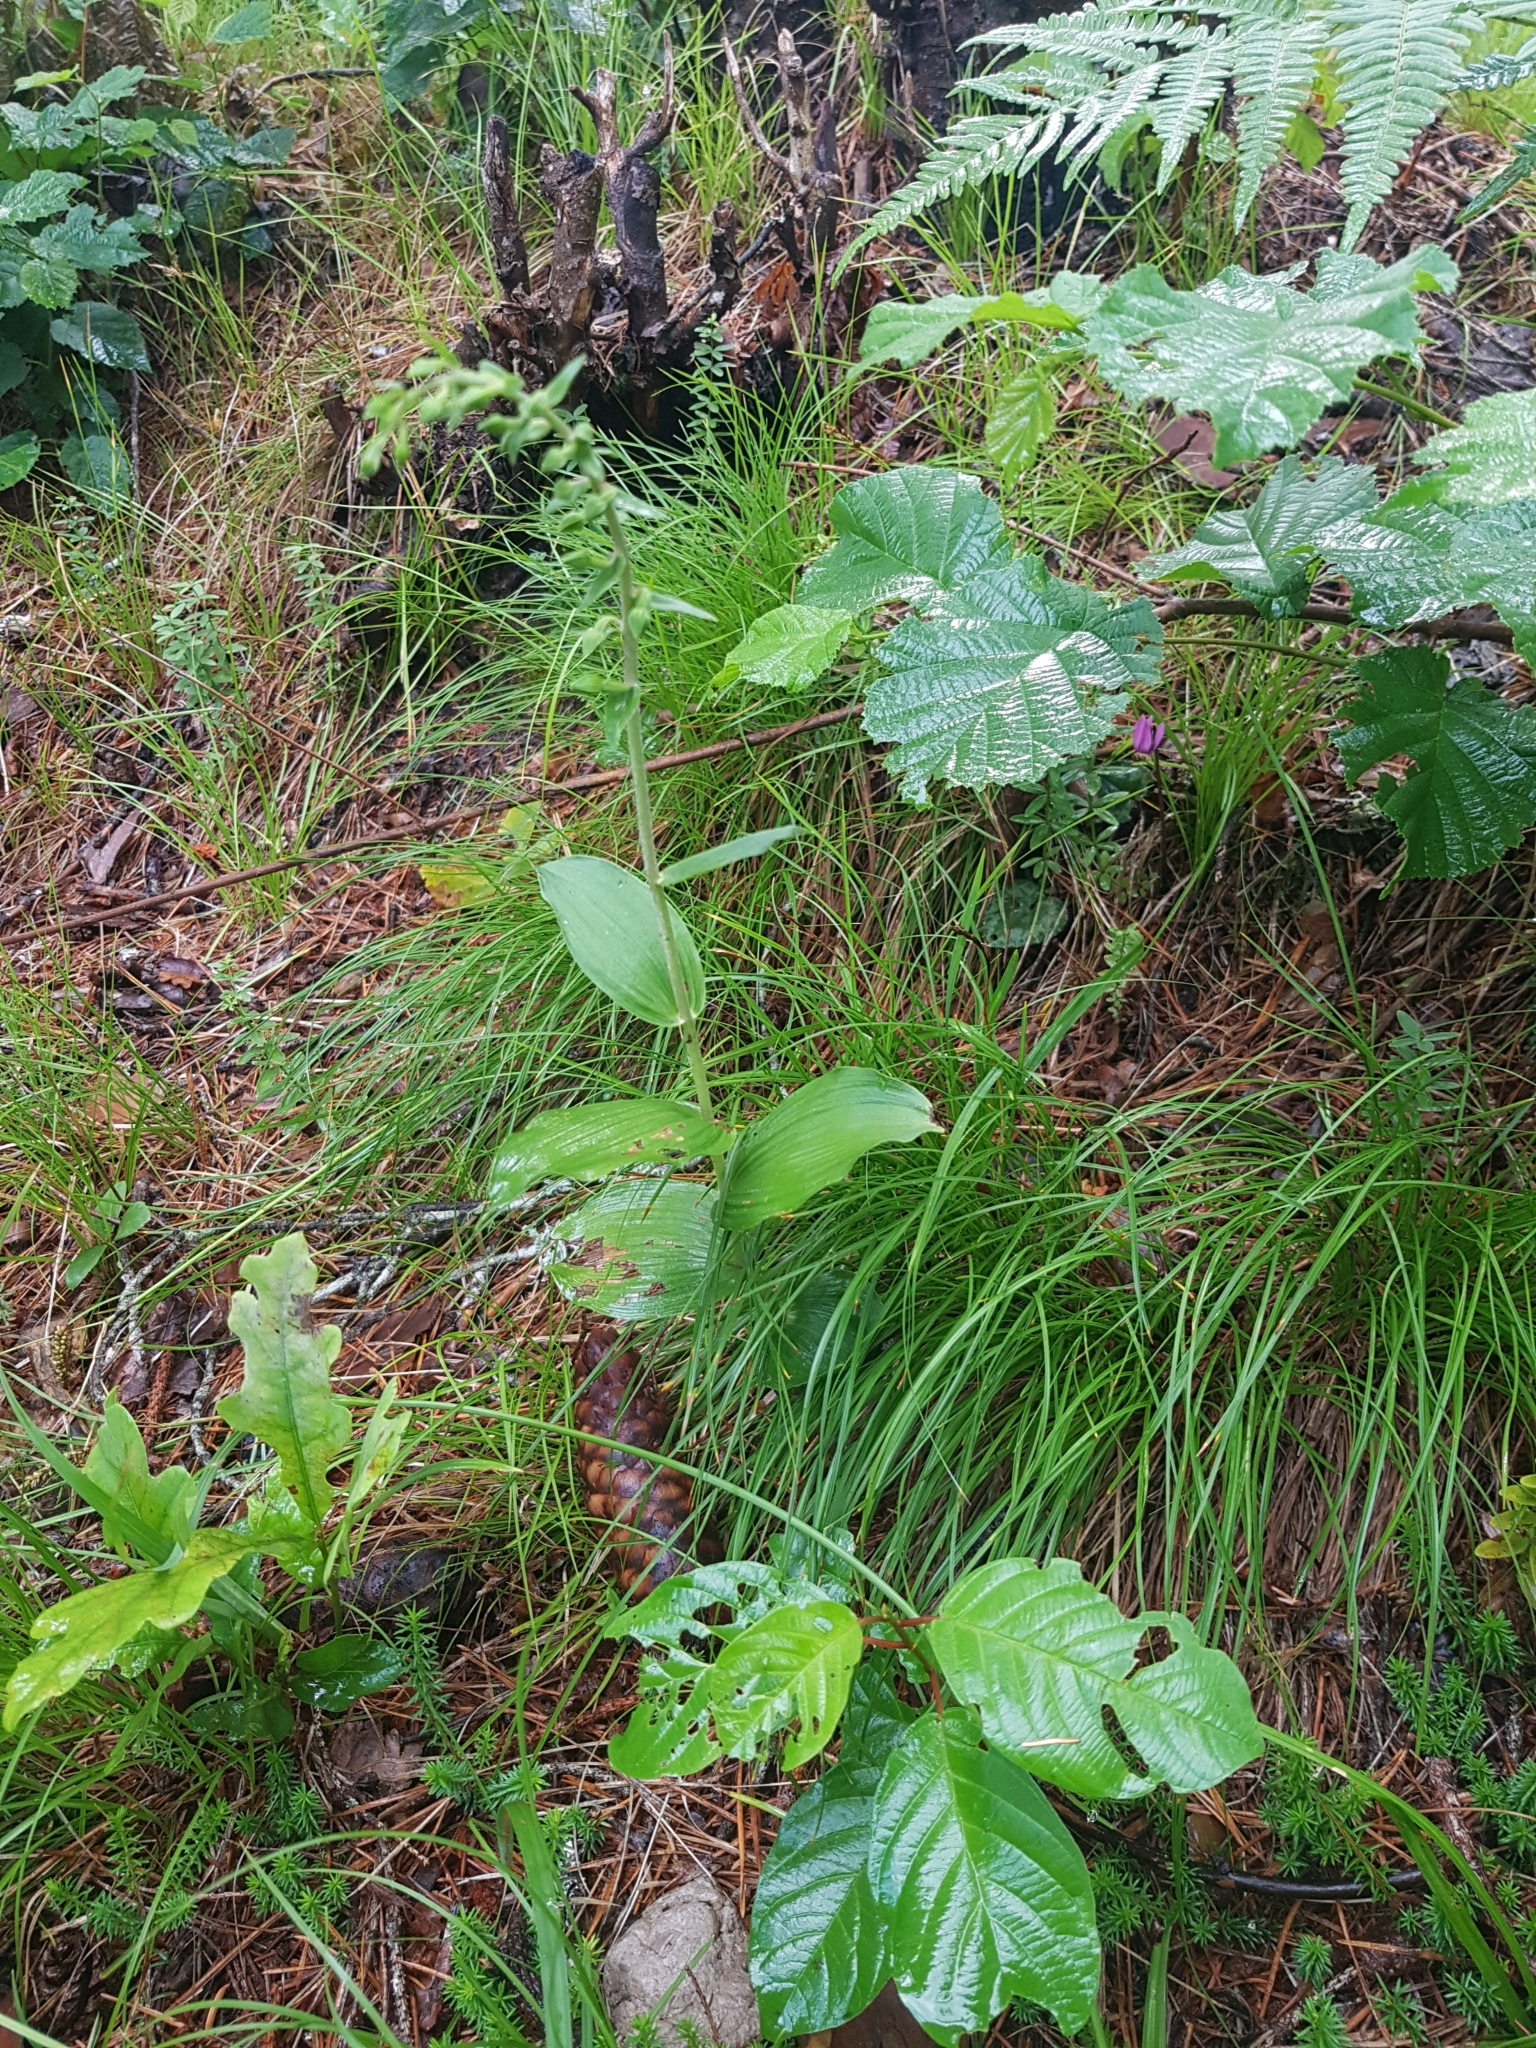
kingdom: Plantae
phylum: Tracheophyta
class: Liliopsida
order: Asparagales
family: Orchidaceae
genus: Epipactis
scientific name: Epipactis helleborine
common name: Broad-leaved helleborine
